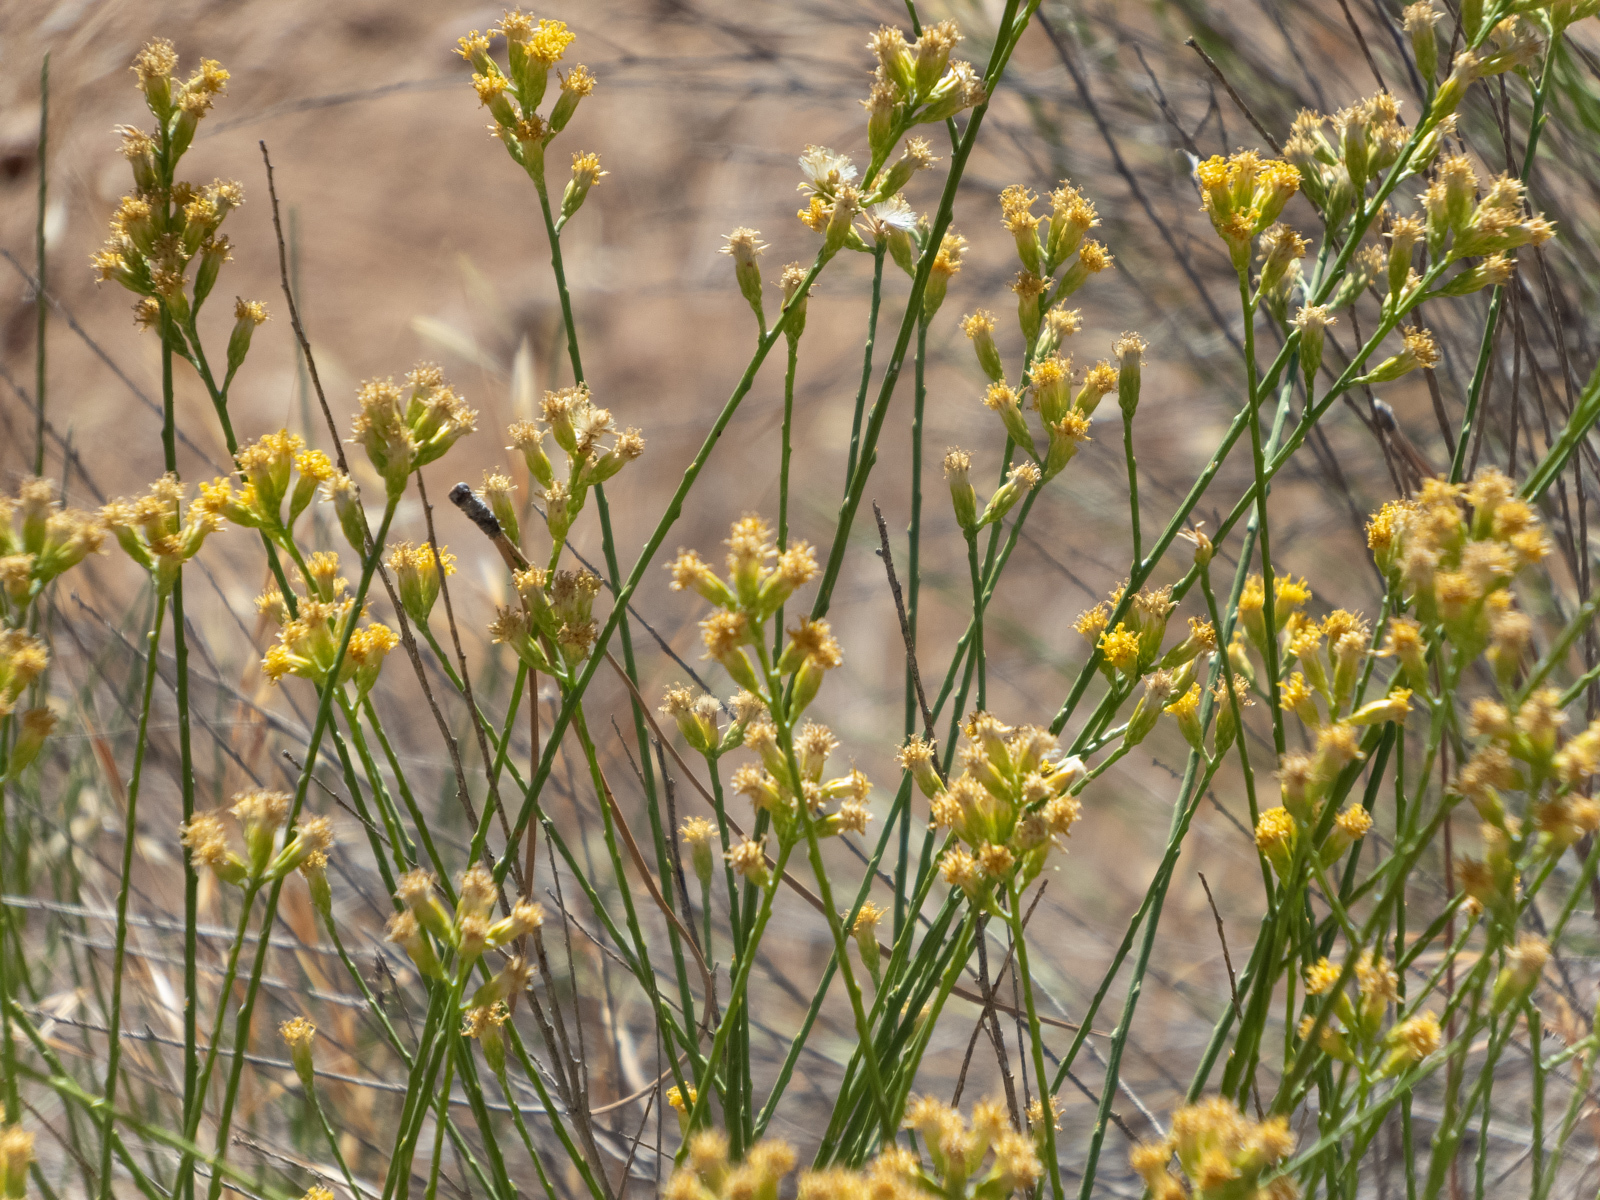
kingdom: Plantae
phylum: Tracheophyta
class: Magnoliopsida
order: Asterales
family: Asteraceae
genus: Lepidospartum
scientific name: Lepidospartum squamatum
